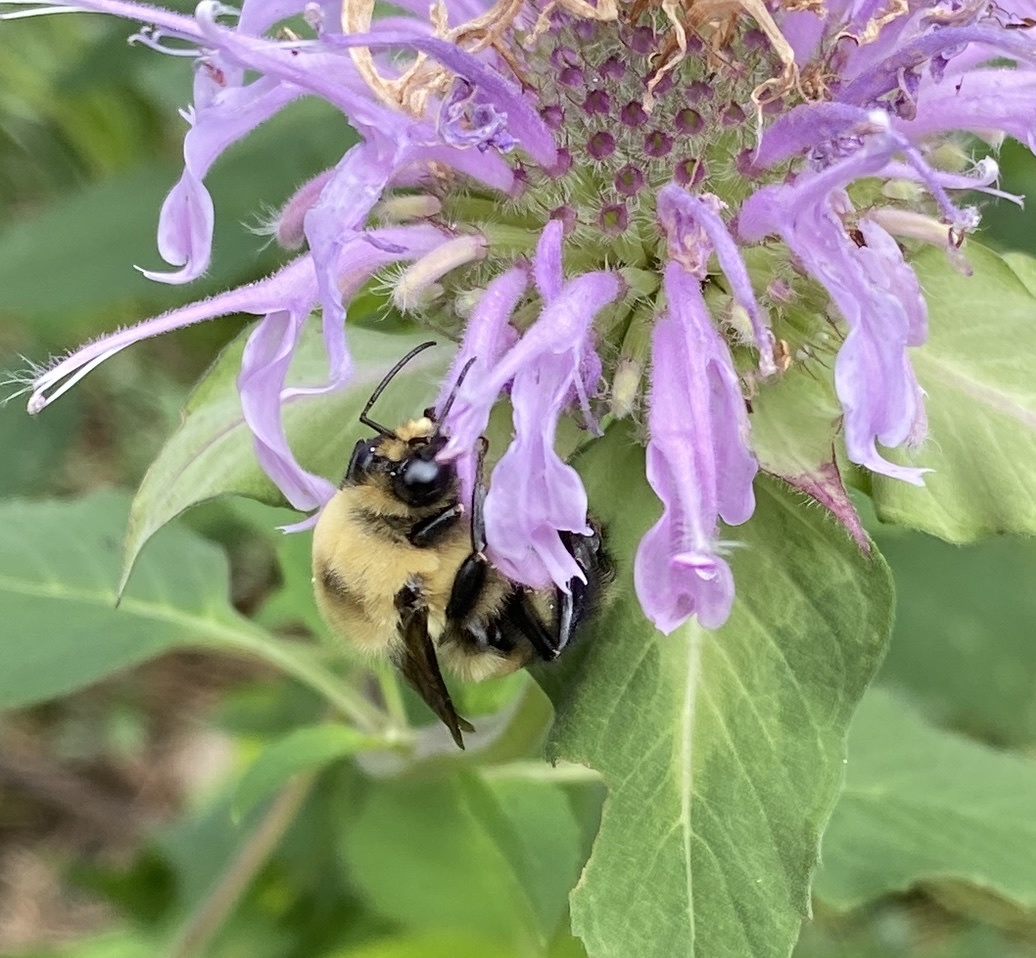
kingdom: Animalia
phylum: Arthropoda
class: Insecta
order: Hymenoptera
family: Apidae
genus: Bombus
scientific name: Bombus griseocollis
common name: Brown-belted bumble bee
